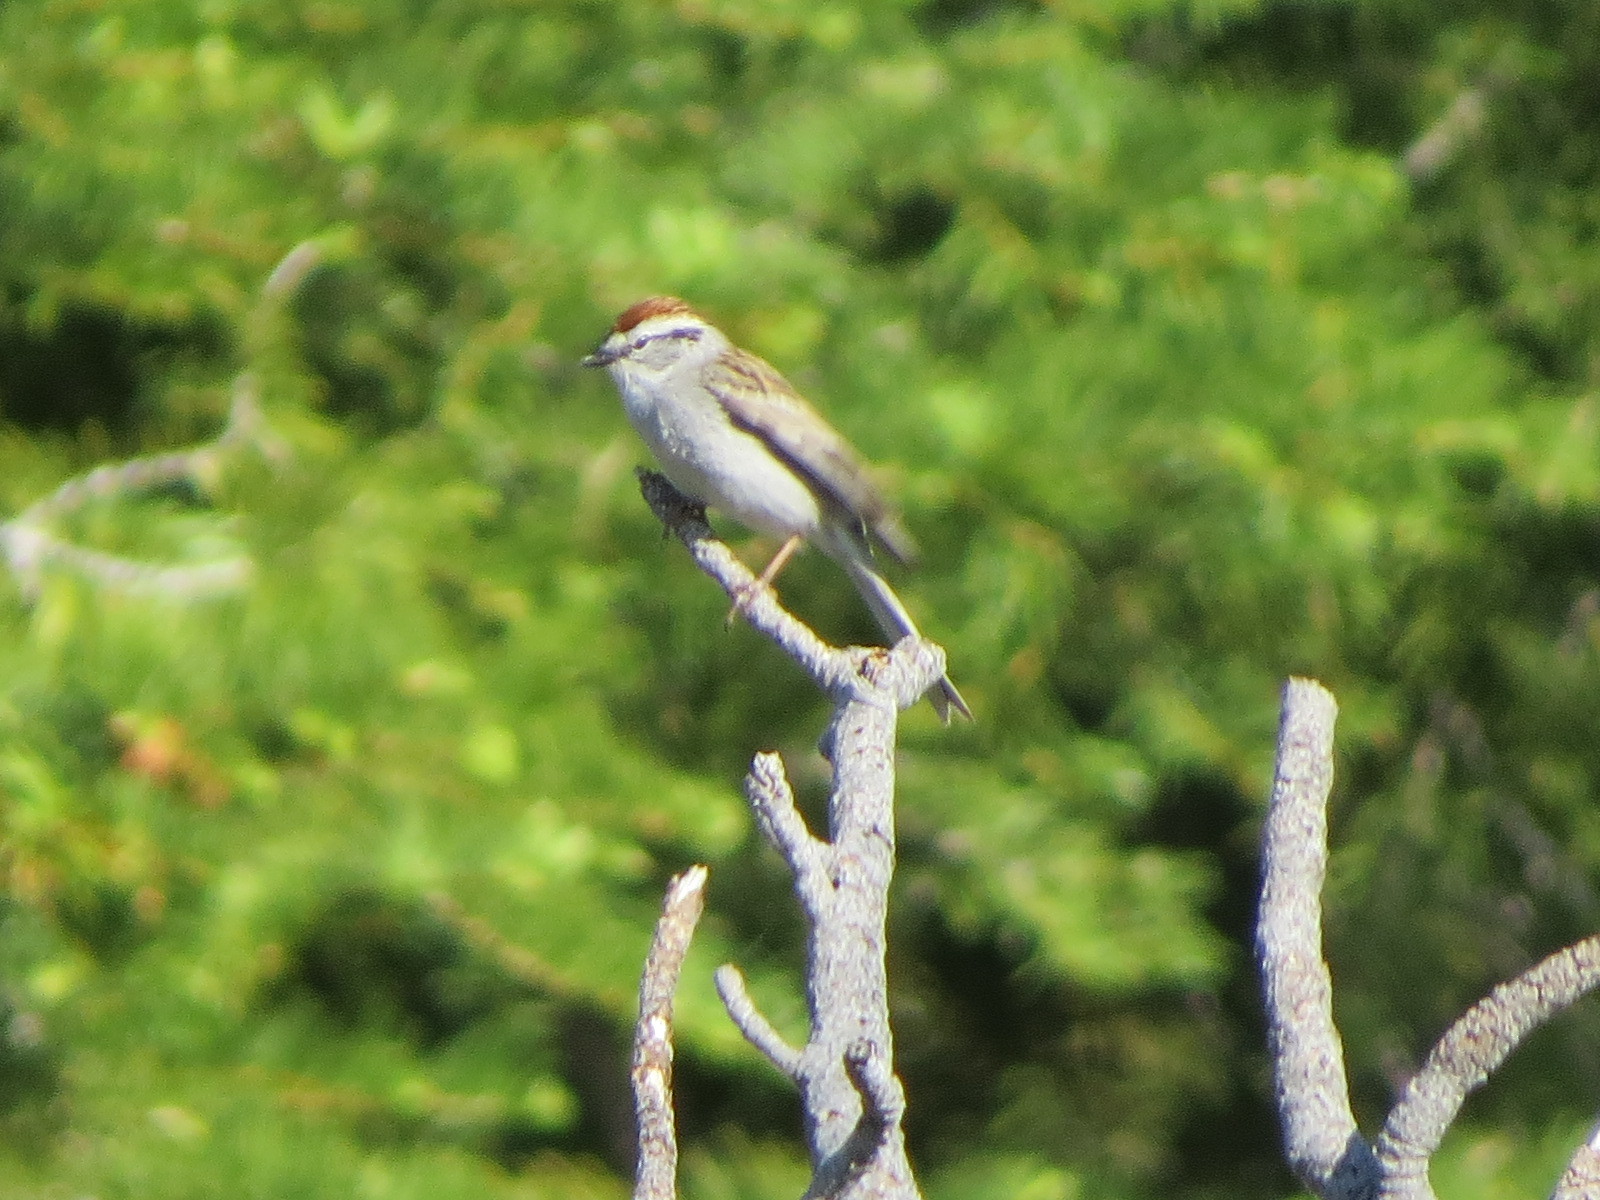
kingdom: Animalia
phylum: Chordata
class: Aves
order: Passeriformes
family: Passerellidae
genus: Spizella
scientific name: Spizella passerina
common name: Chipping sparrow
